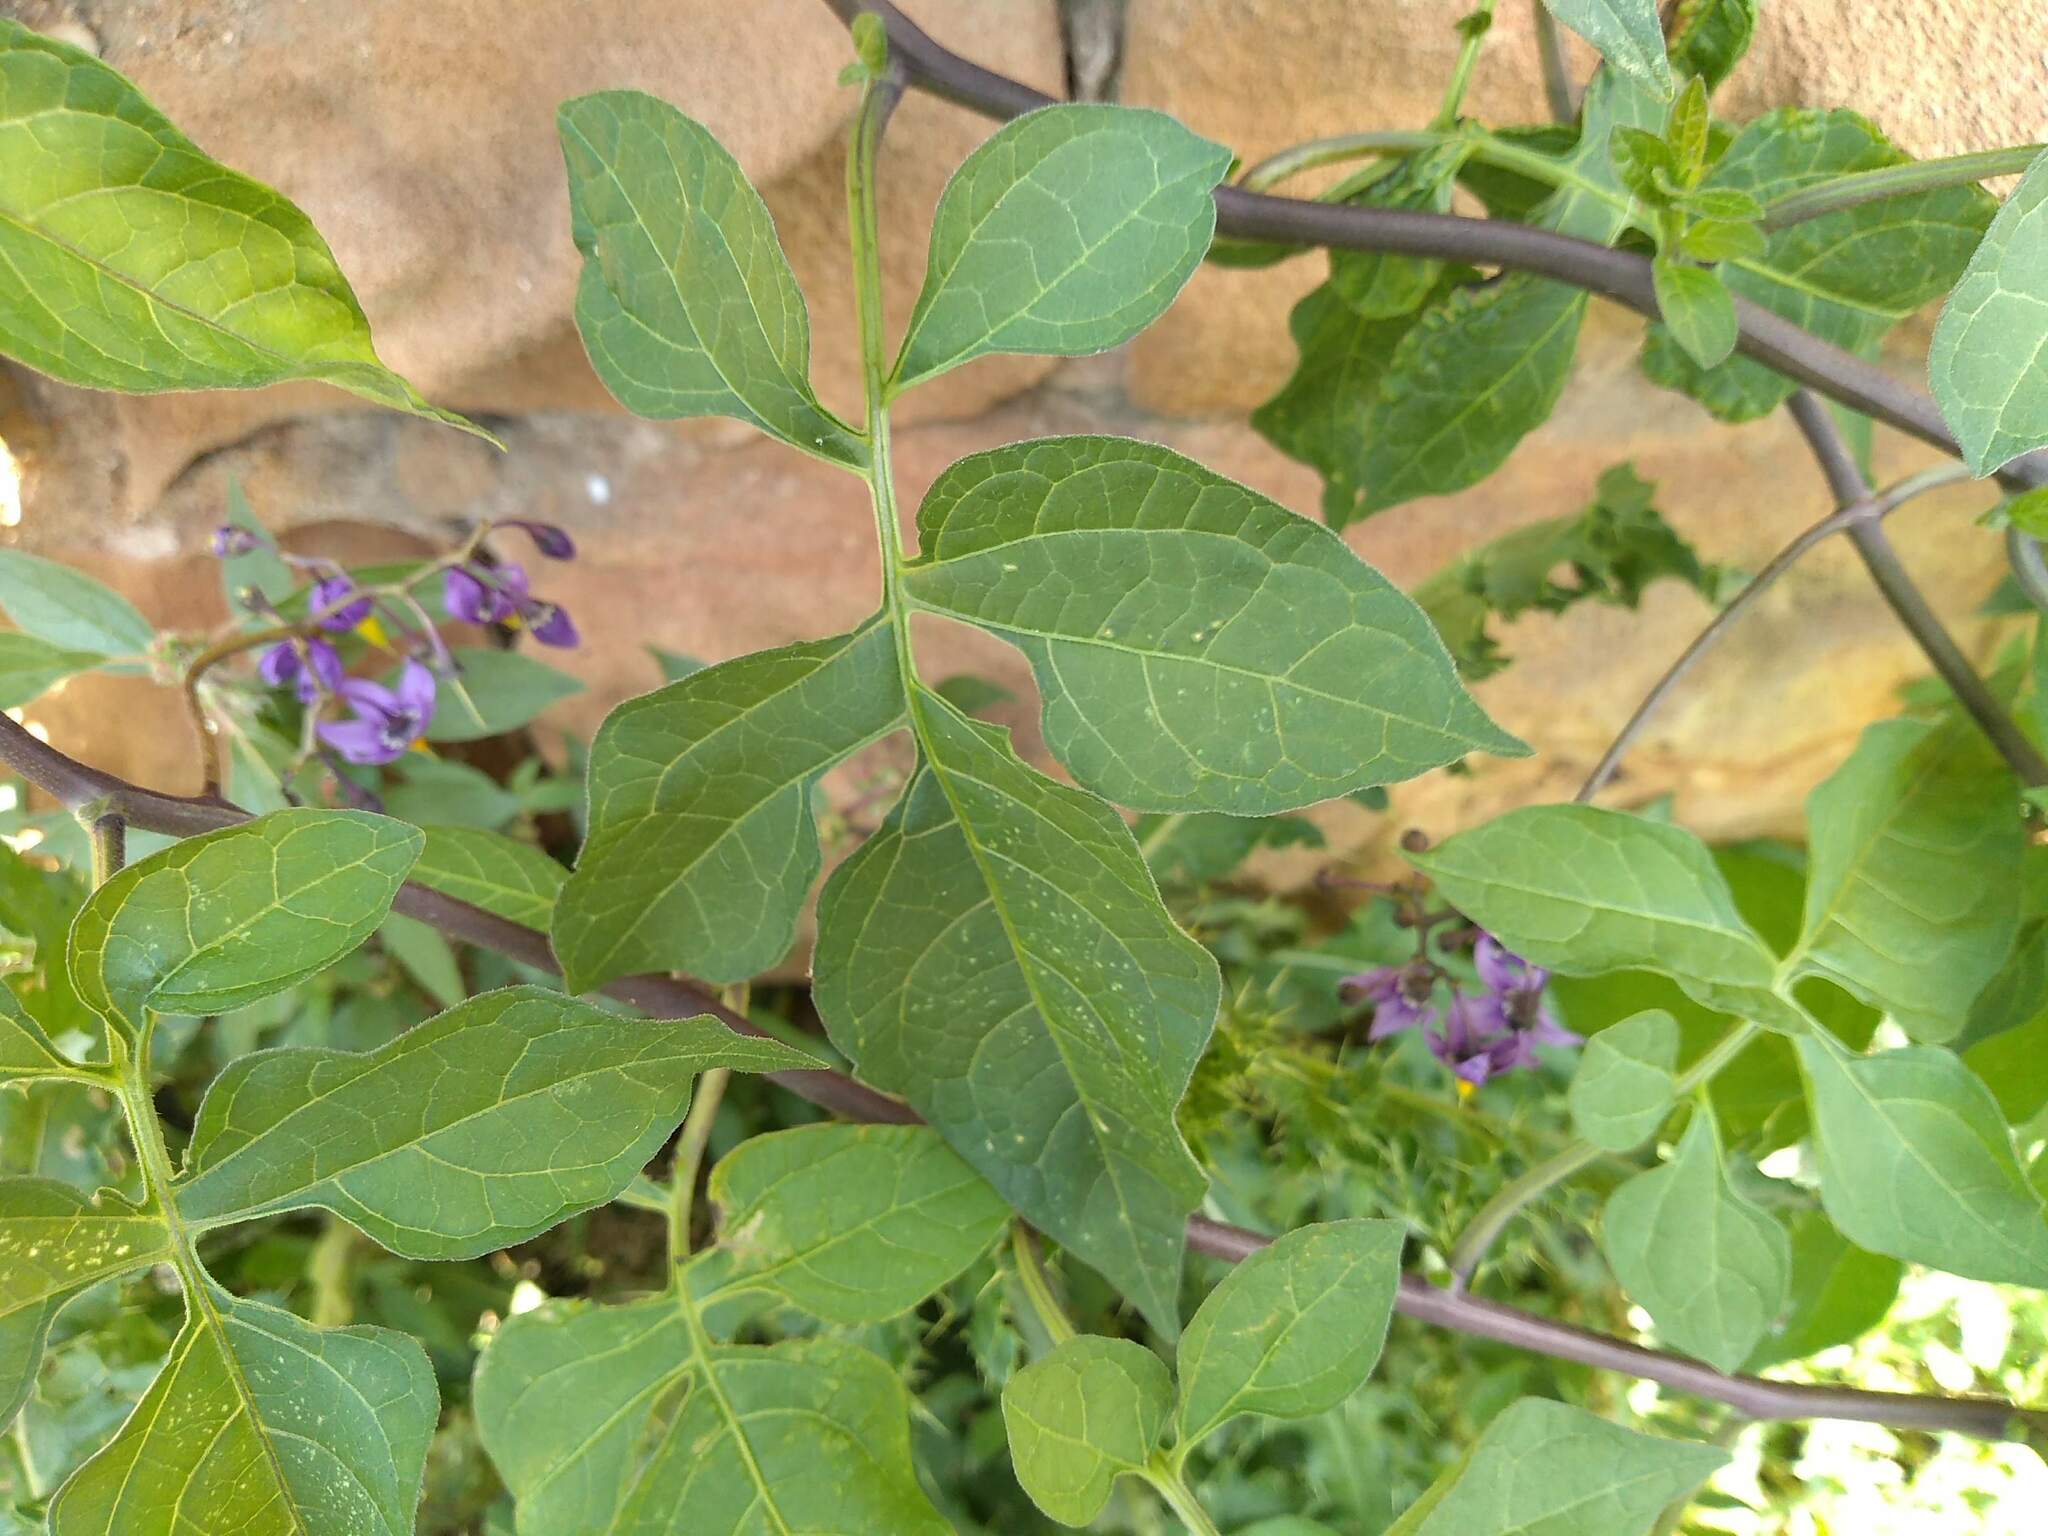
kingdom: Plantae
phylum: Tracheophyta
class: Magnoliopsida
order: Solanales
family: Solanaceae
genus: Solanum
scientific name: Solanum dulcamara
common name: Climbing nightshade
